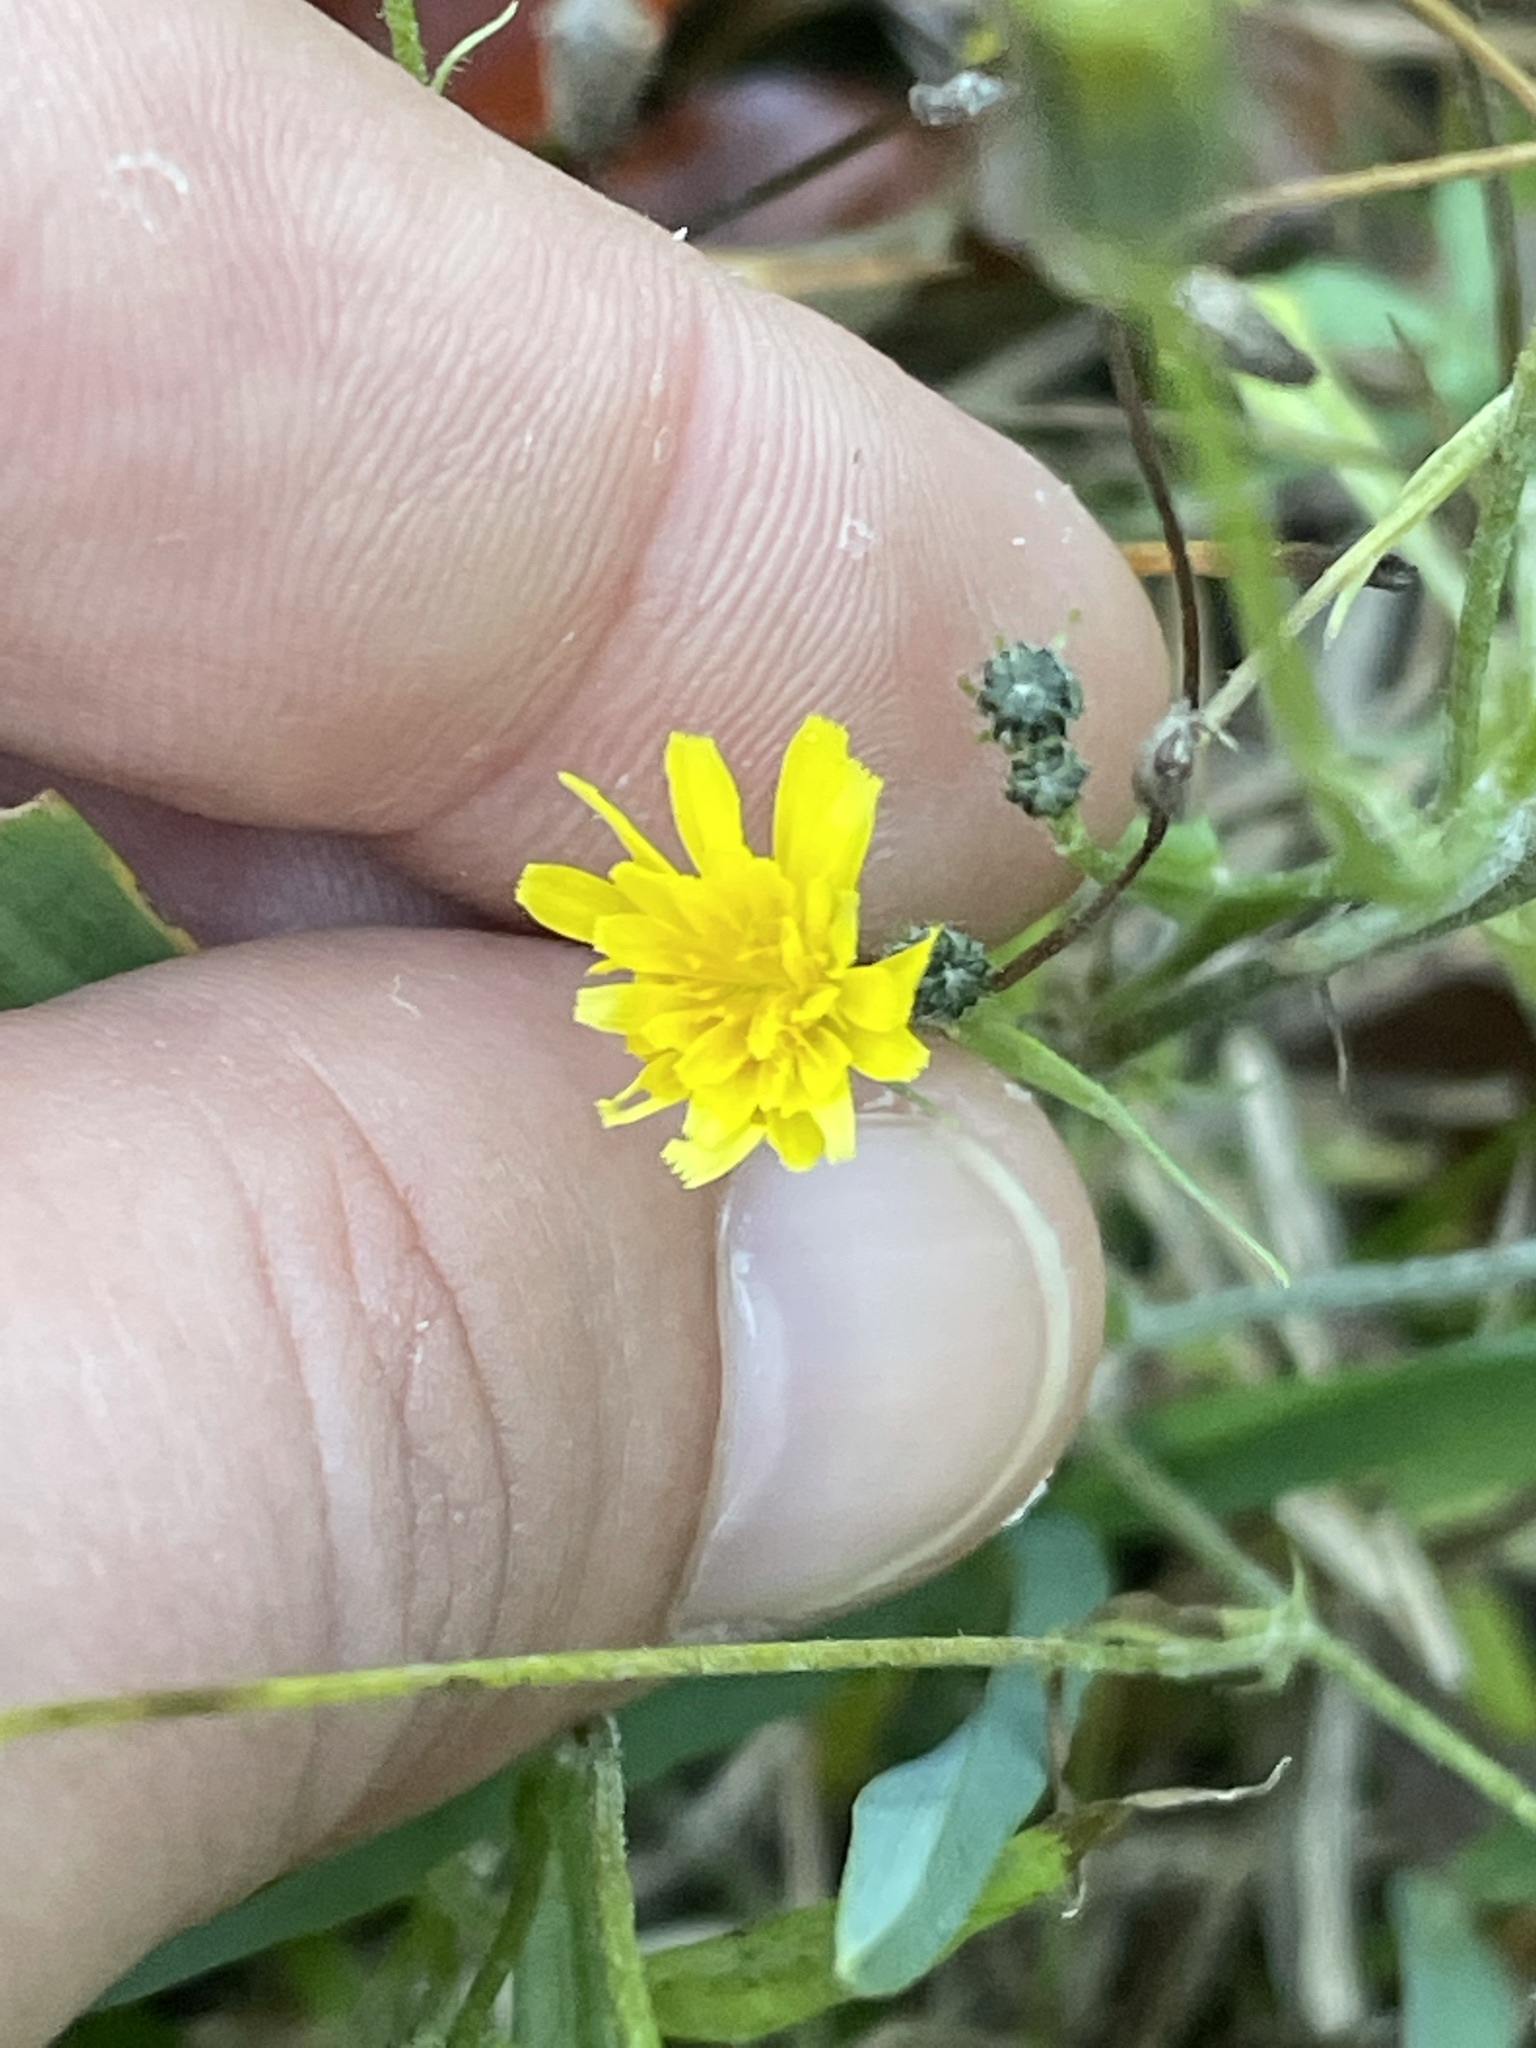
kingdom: Plantae
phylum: Tracheophyta
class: Magnoliopsida
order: Asterales
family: Asteraceae
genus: Crepis
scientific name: Crepis capillaris
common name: Smooth hawksbeard
